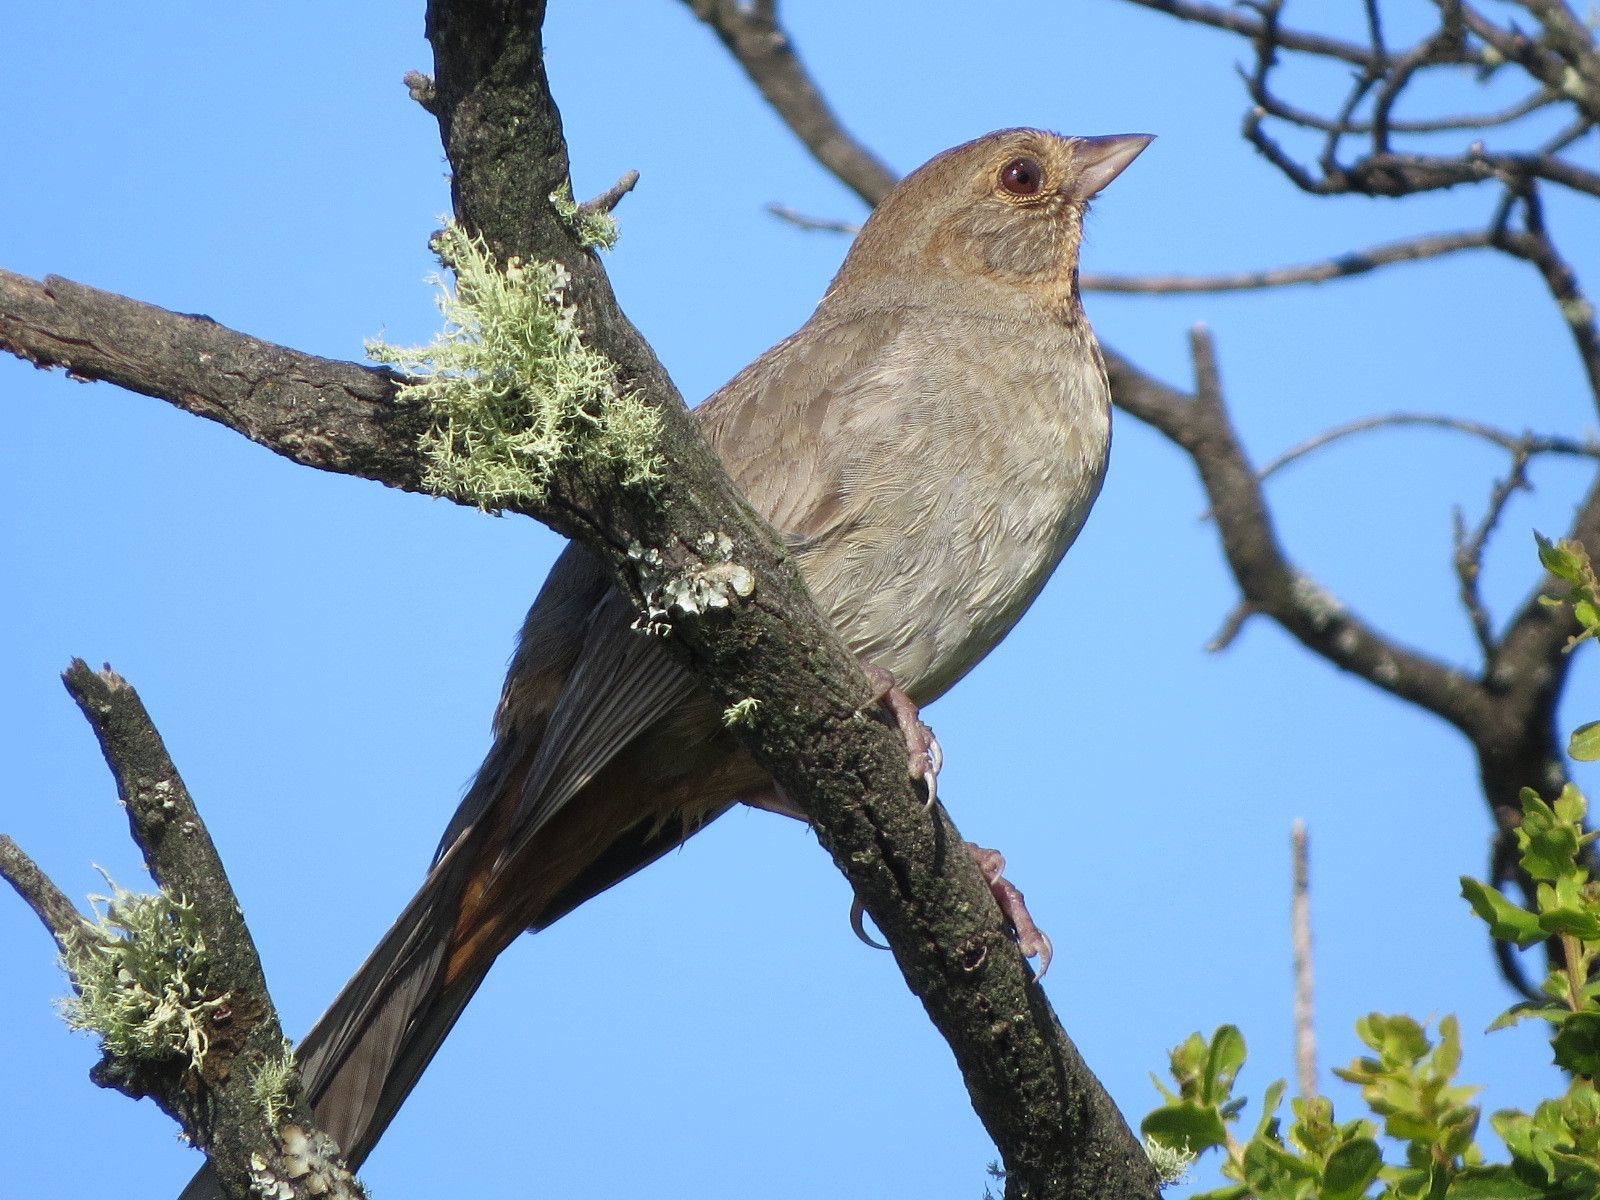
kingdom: Animalia
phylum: Chordata
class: Aves
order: Passeriformes
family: Passerellidae
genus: Melozone
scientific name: Melozone crissalis
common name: California towhee
